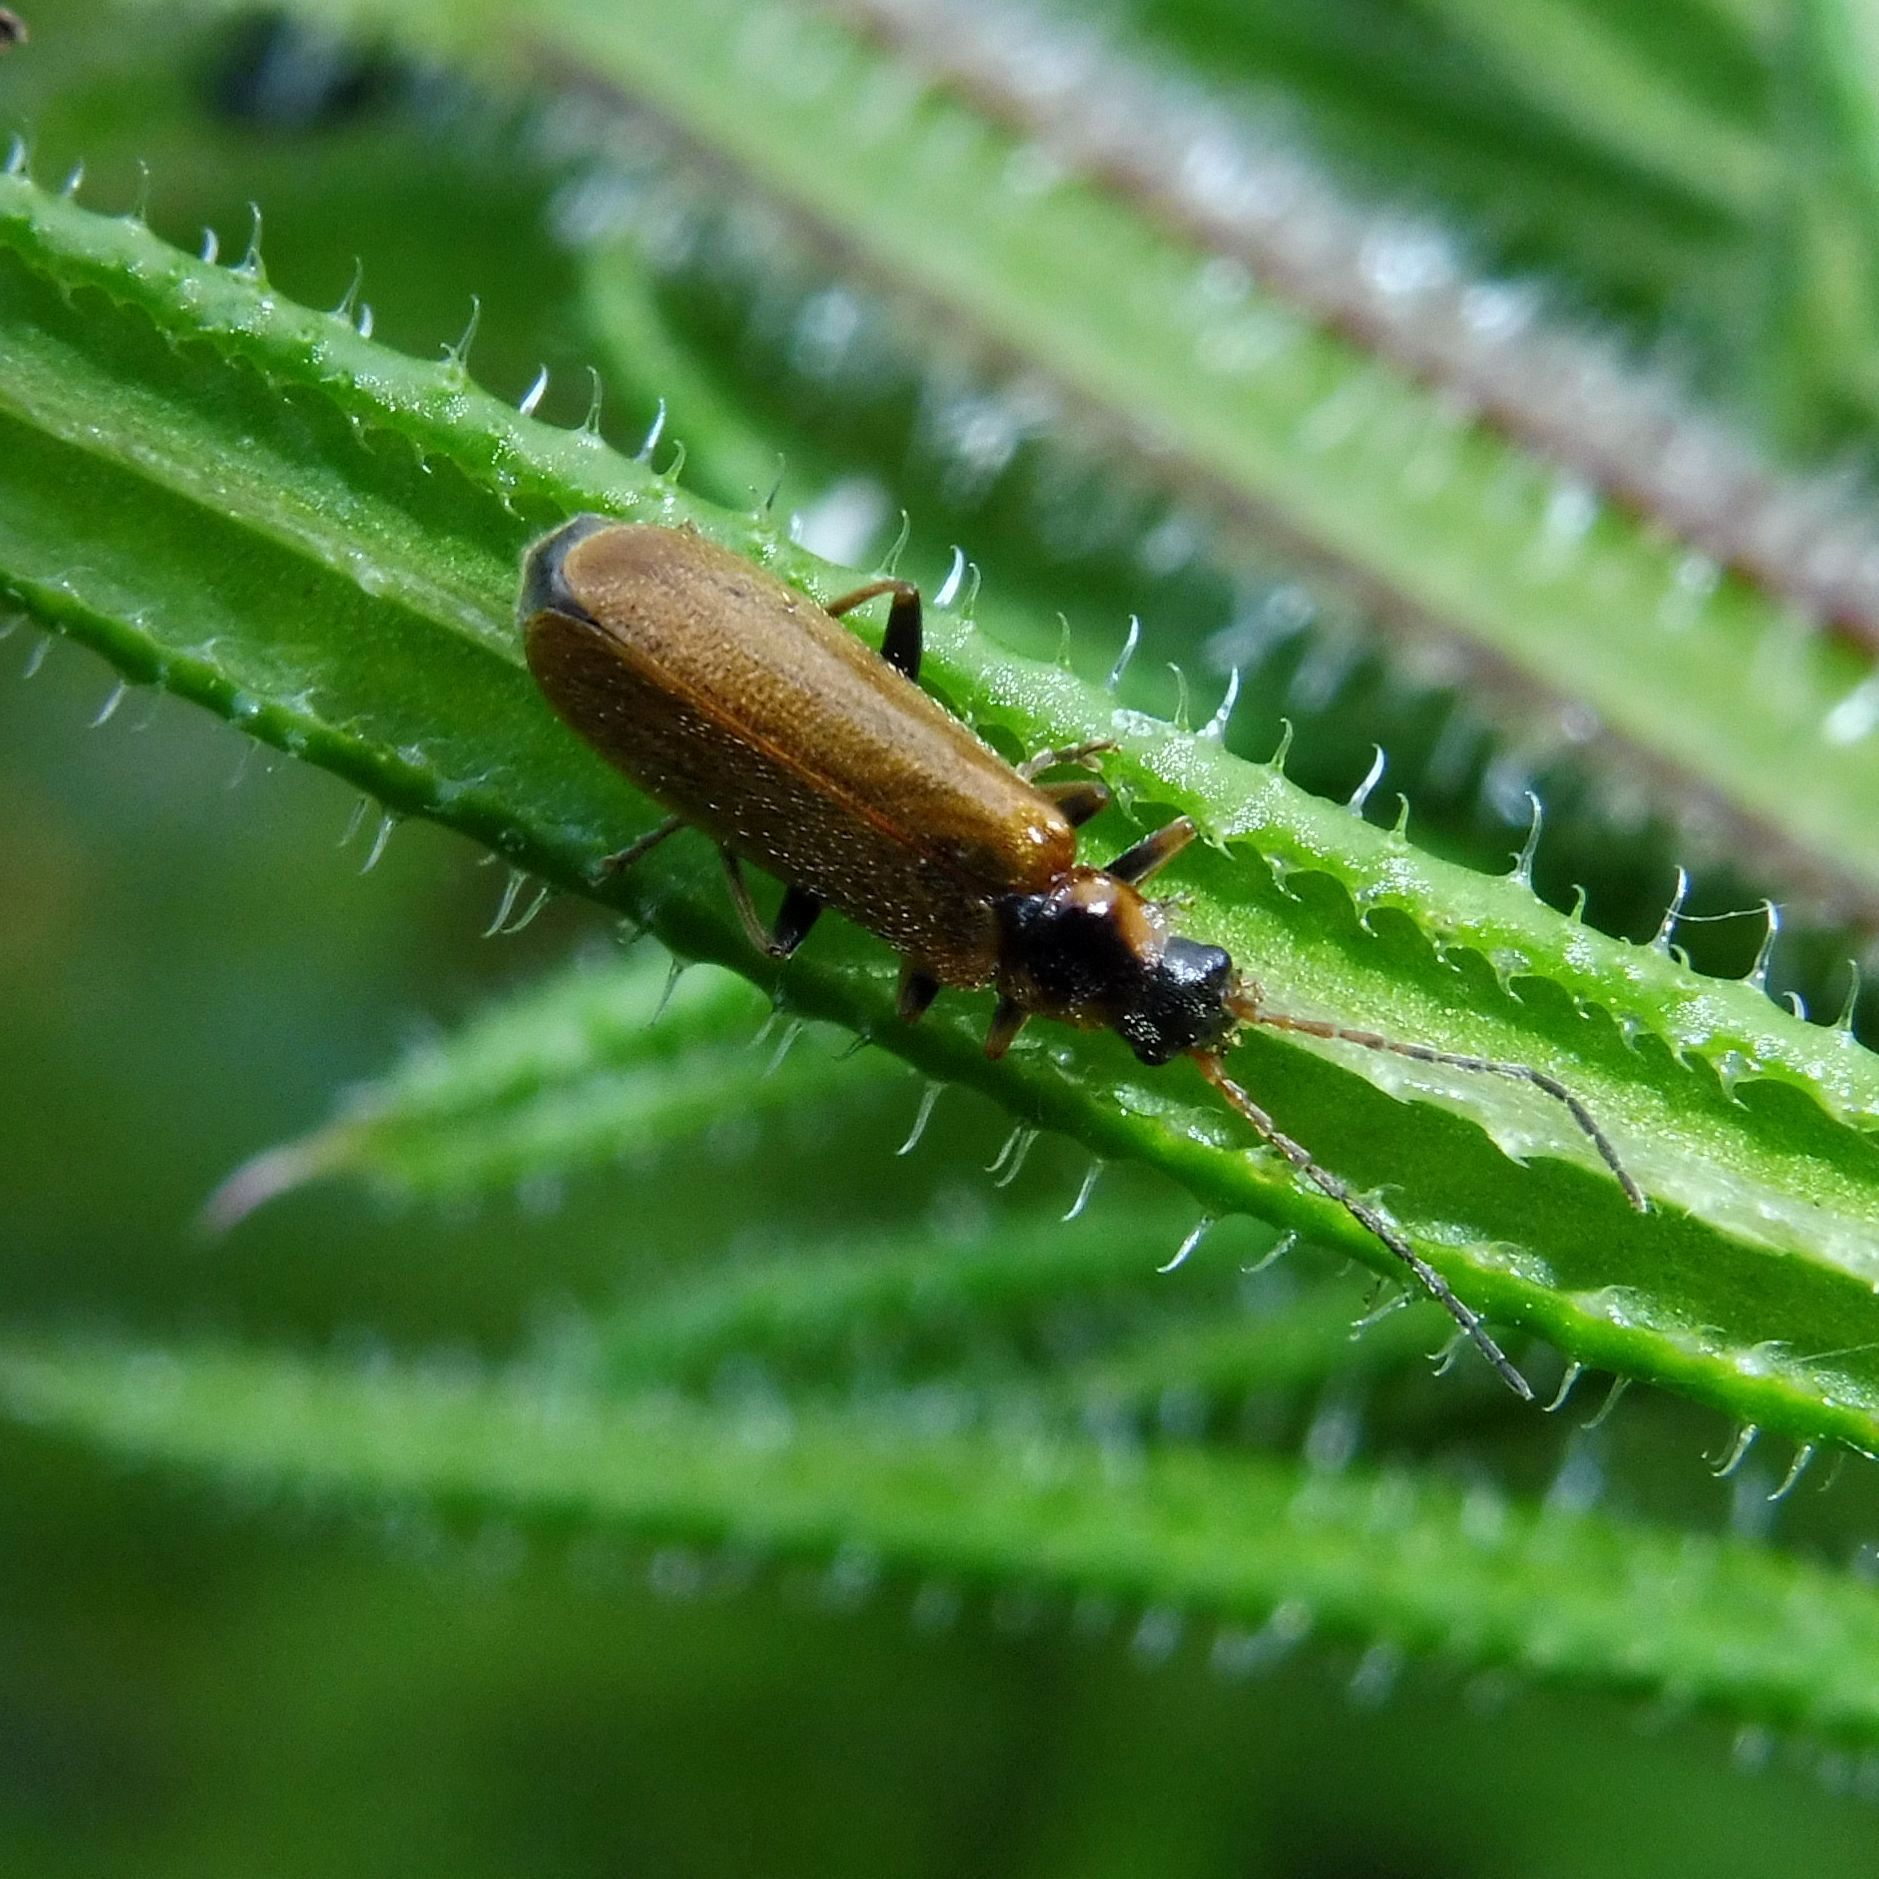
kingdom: Animalia
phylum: Arthropoda
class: Insecta
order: Coleoptera
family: Cantharidae
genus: Rhagonycha
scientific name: Rhagonycha nigriventris
